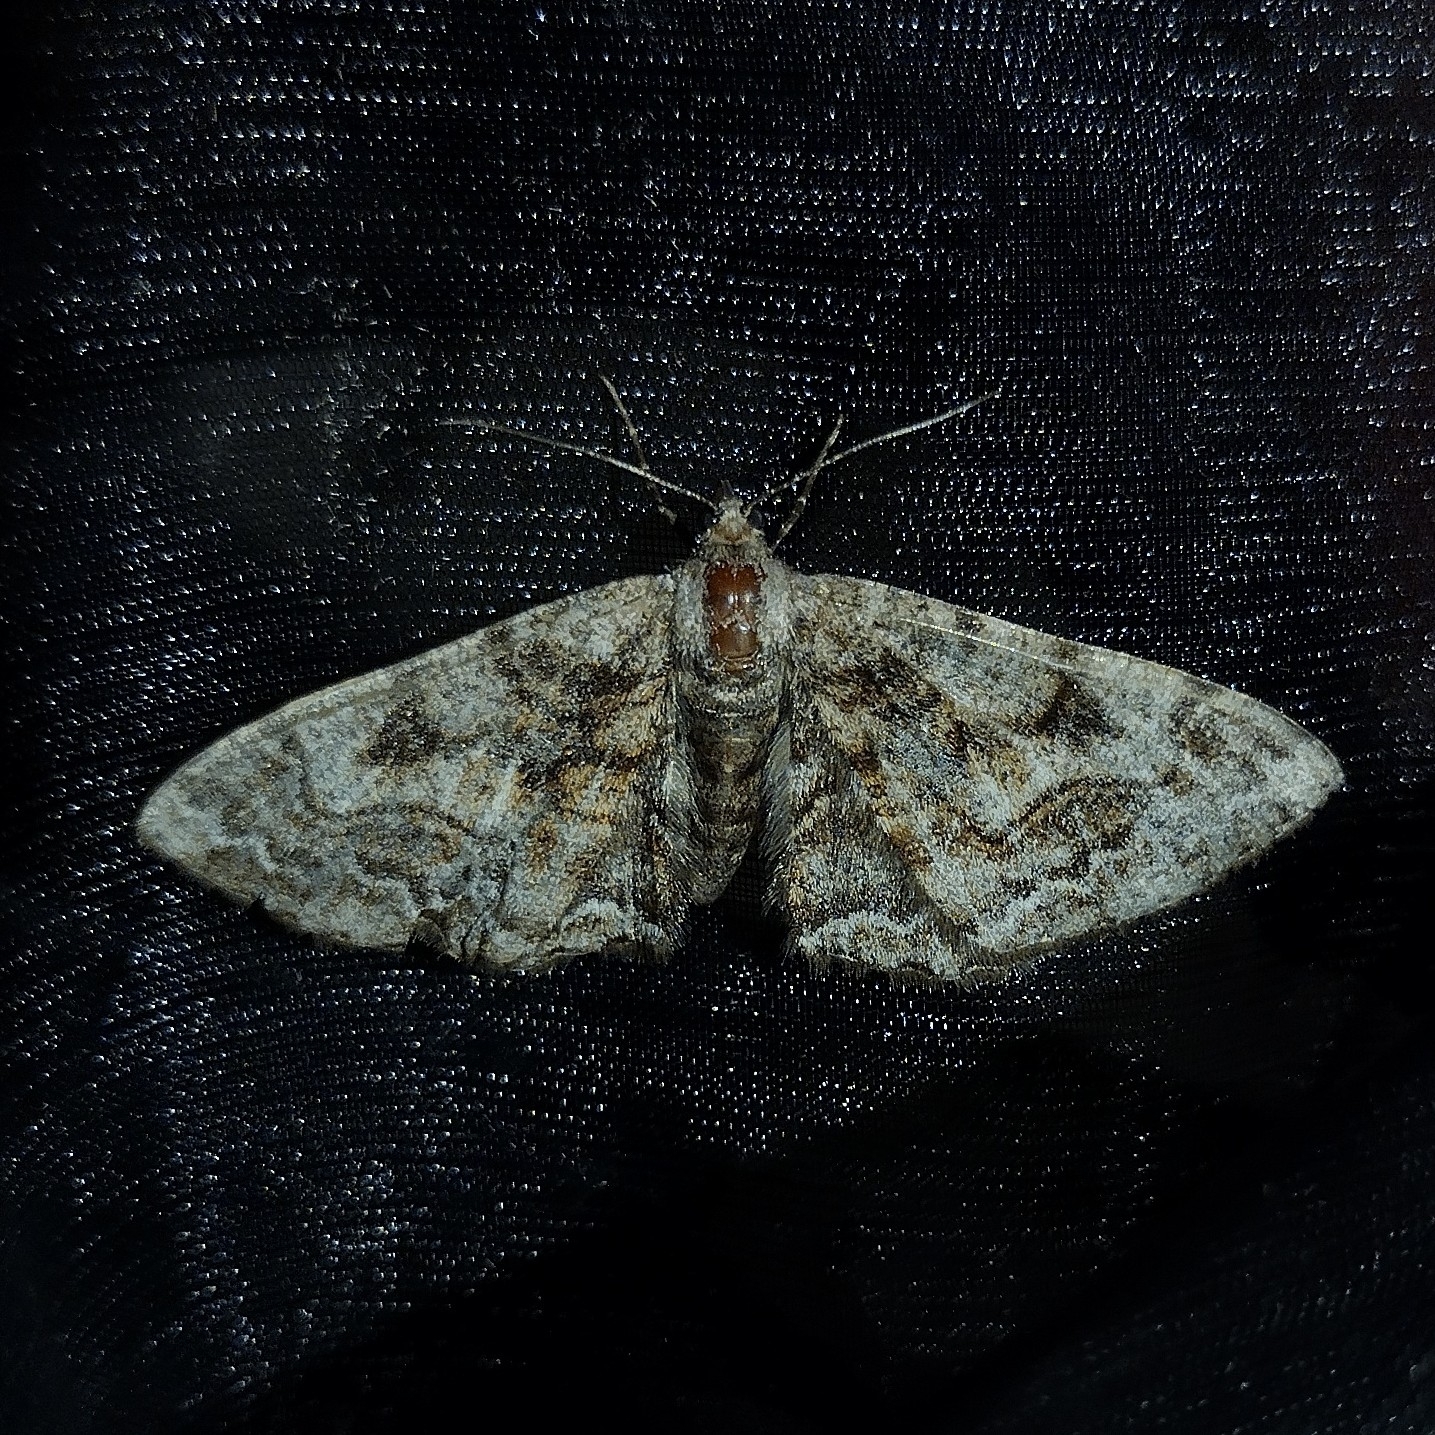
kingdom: Animalia
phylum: Arthropoda
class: Insecta
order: Lepidoptera
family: Geometridae
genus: Alcis
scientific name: Alcis repandata
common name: Mottled beauty
